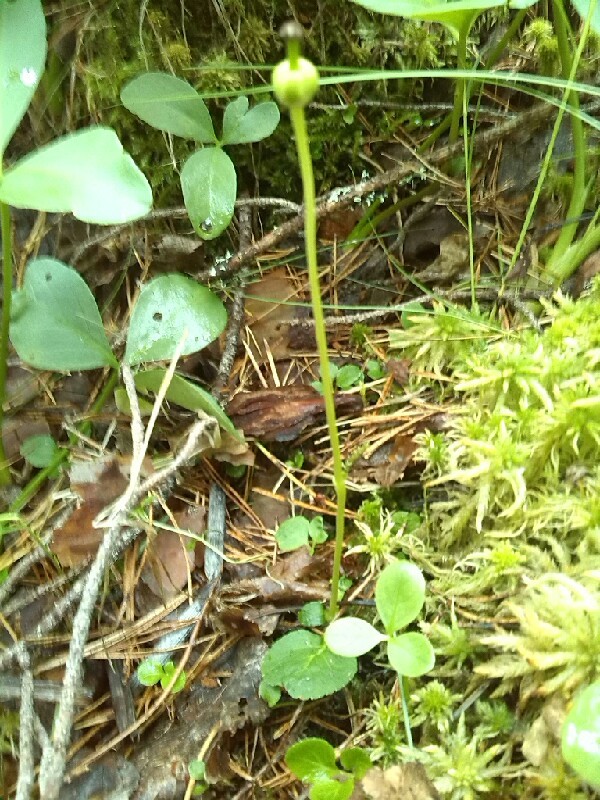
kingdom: Plantae
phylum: Tracheophyta
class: Magnoliopsida
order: Ericales
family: Ericaceae
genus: Moneses
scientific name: Moneses uniflora
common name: One-flowered wintergreen
